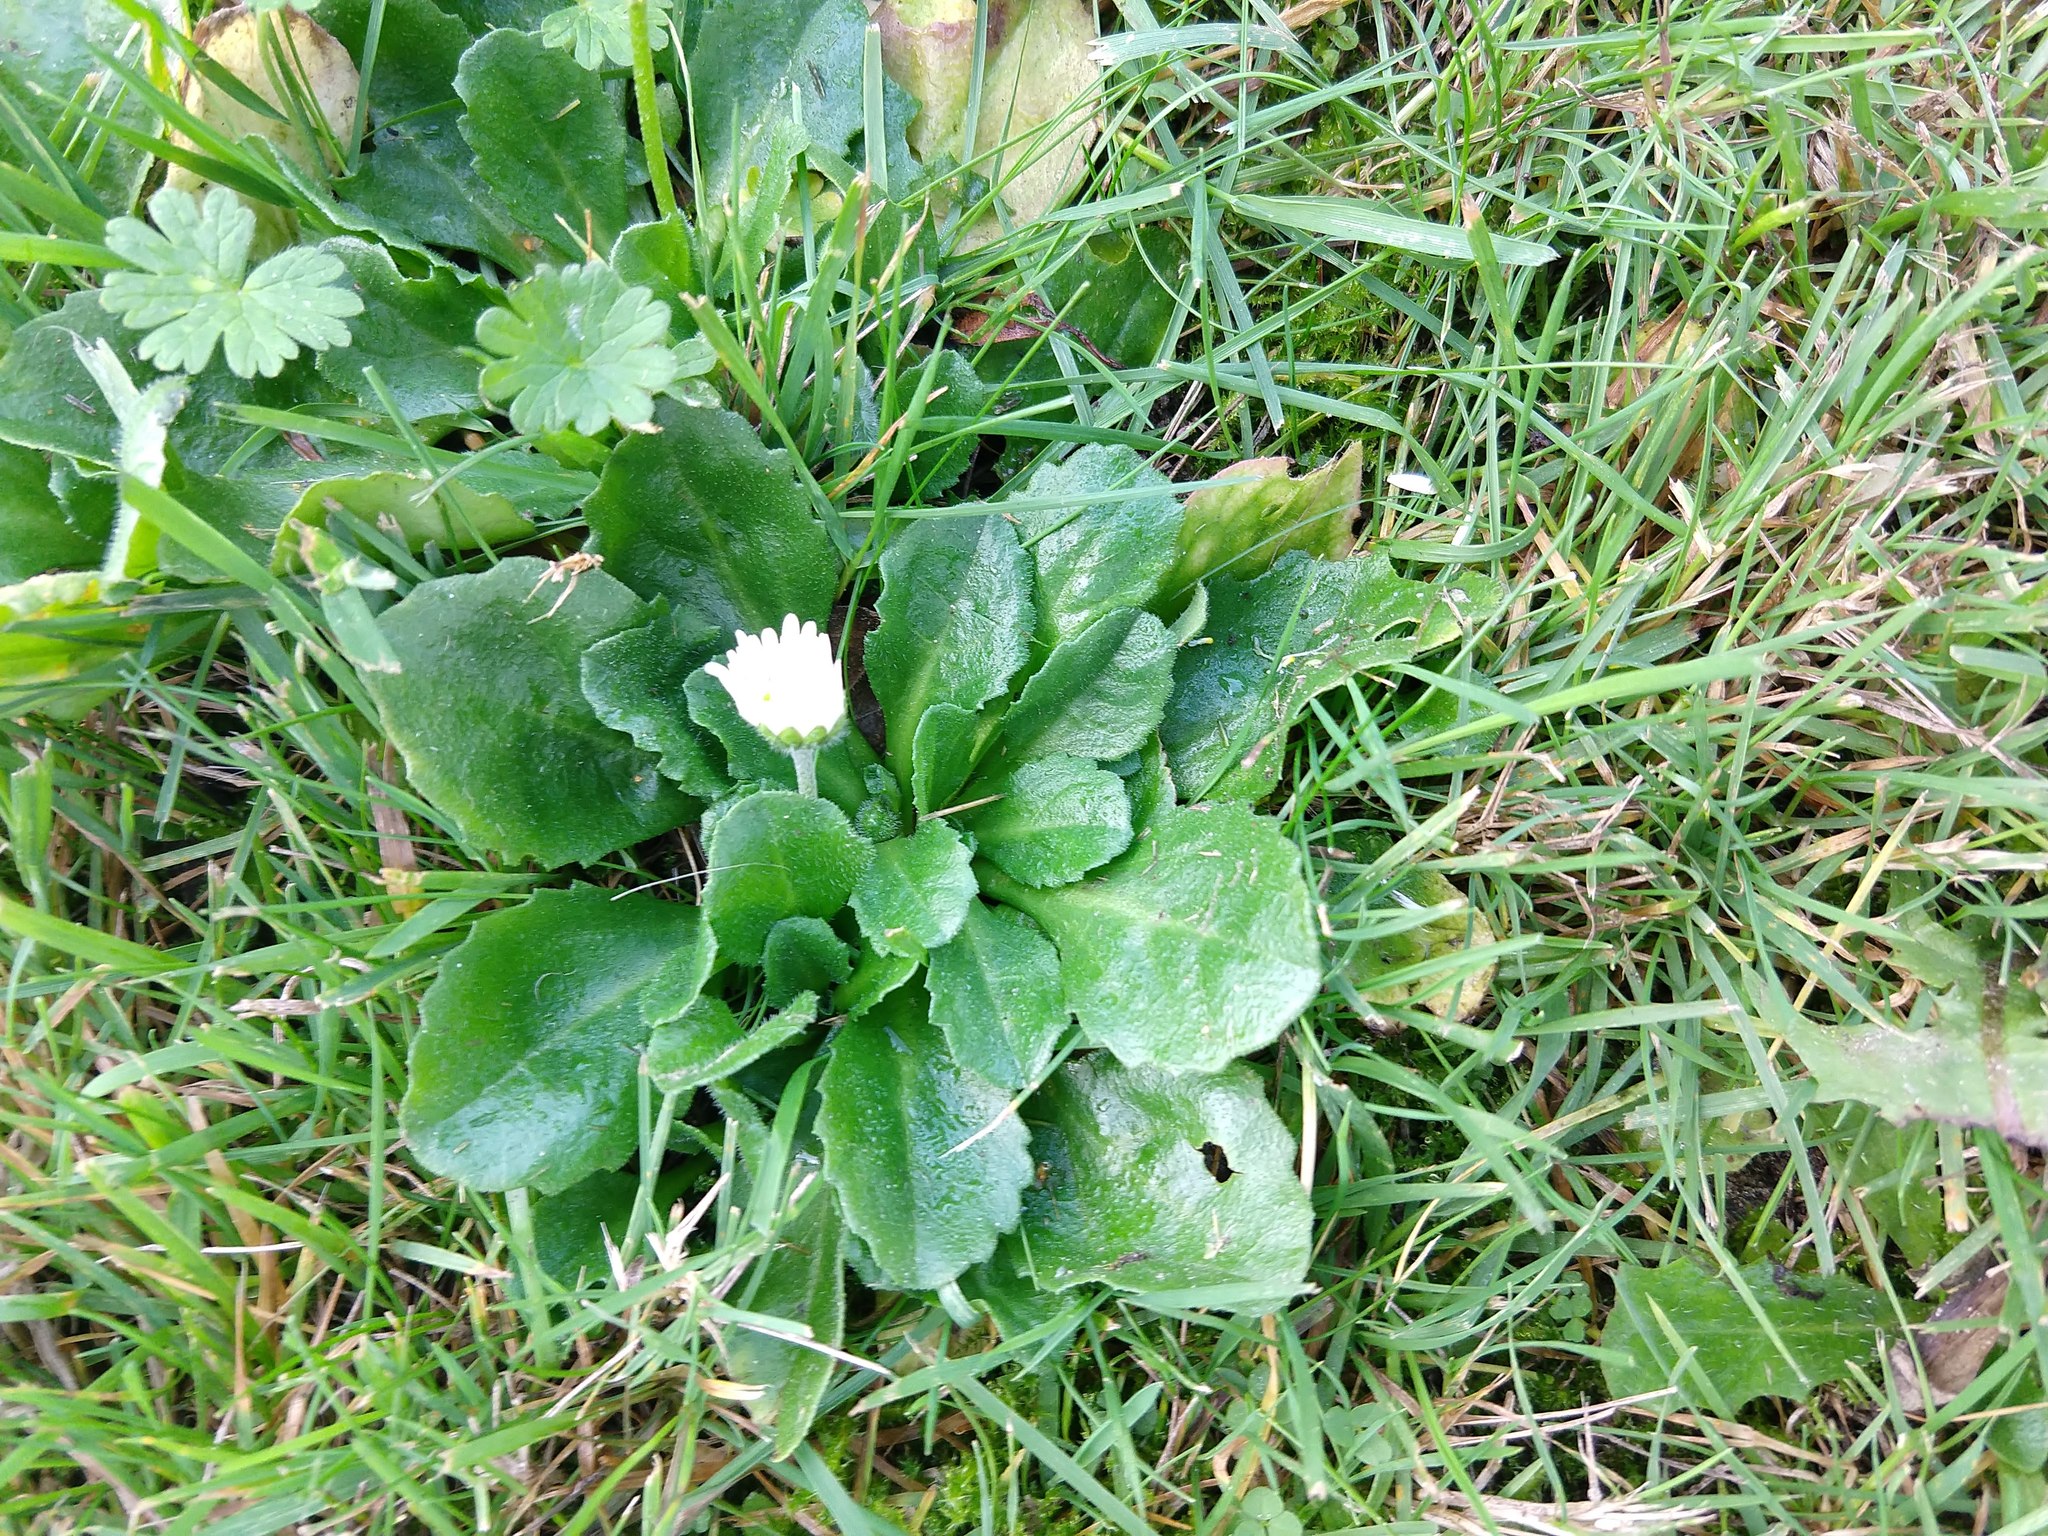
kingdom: Plantae
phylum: Tracheophyta
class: Magnoliopsida
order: Asterales
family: Asteraceae
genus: Bellis
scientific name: Bellis perennis
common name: Lawndaisy
